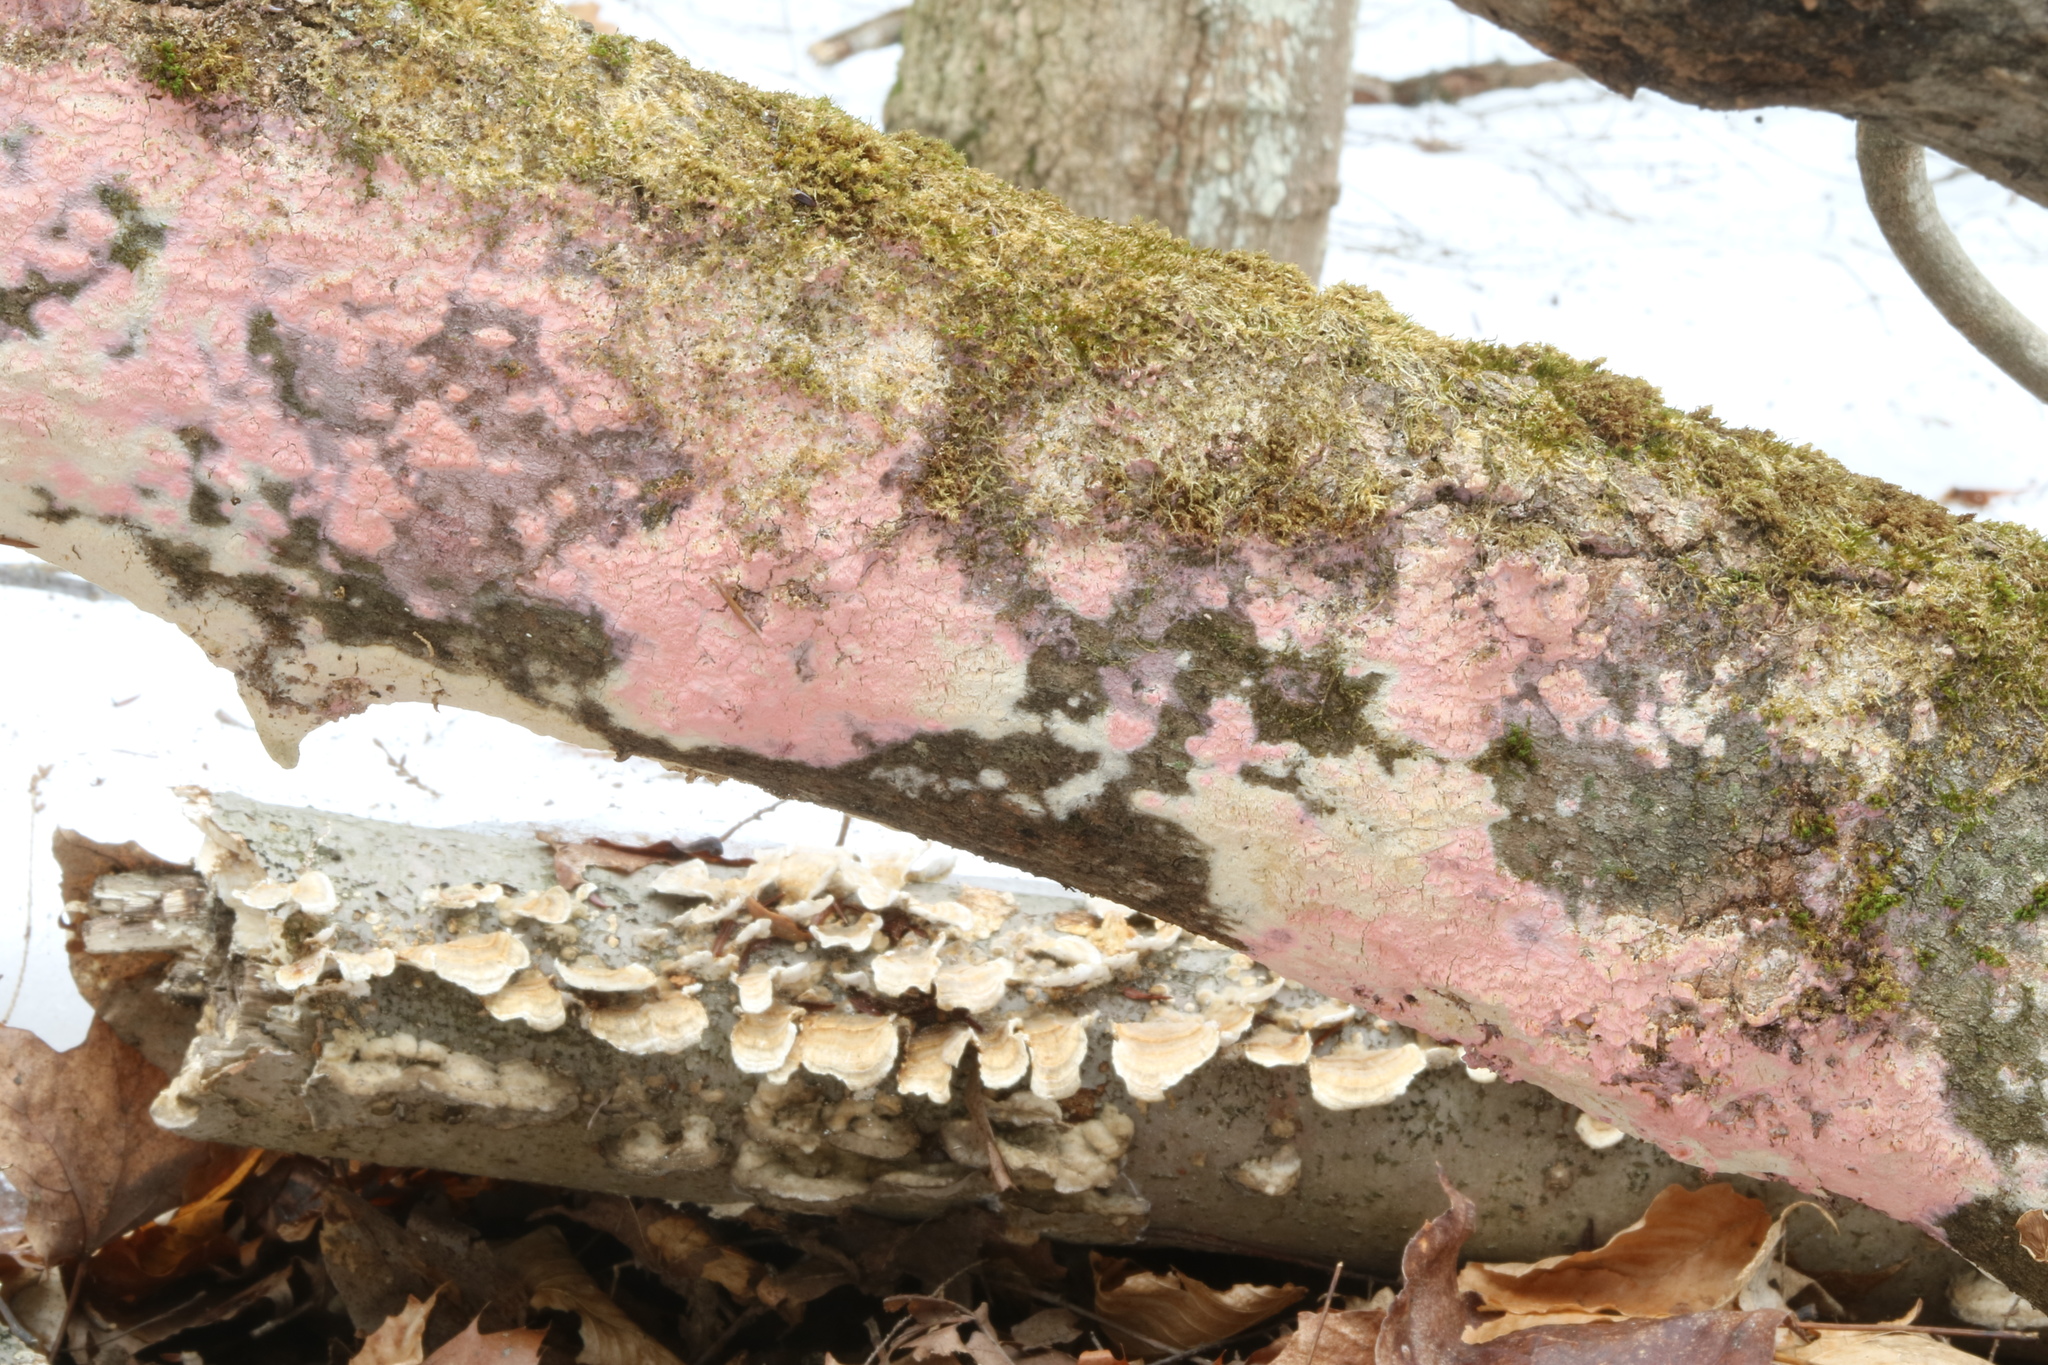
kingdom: Fungi
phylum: Basidiomycota
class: Agaricomycetes
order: Cantharellales
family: Tulasnellaceae
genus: Tulasnella
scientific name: Tulasnella violea
